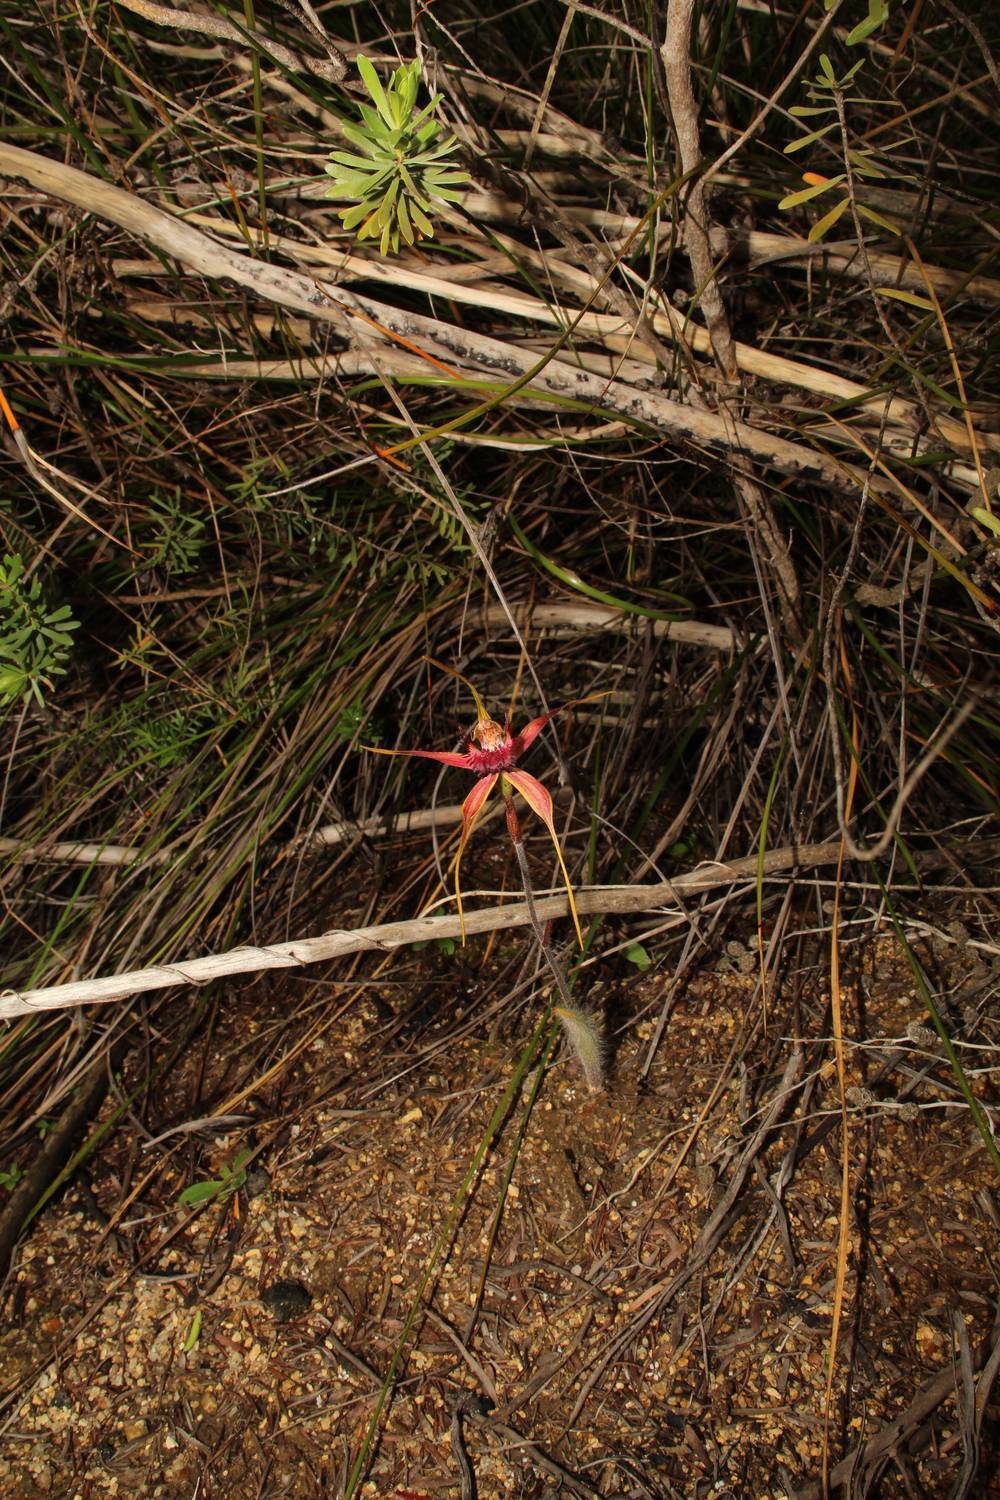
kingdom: Plantae
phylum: Tracheophyta
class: Liliopsida
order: Asparagales
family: Orchidaceae
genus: Caladenia
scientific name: Caladenia decora
